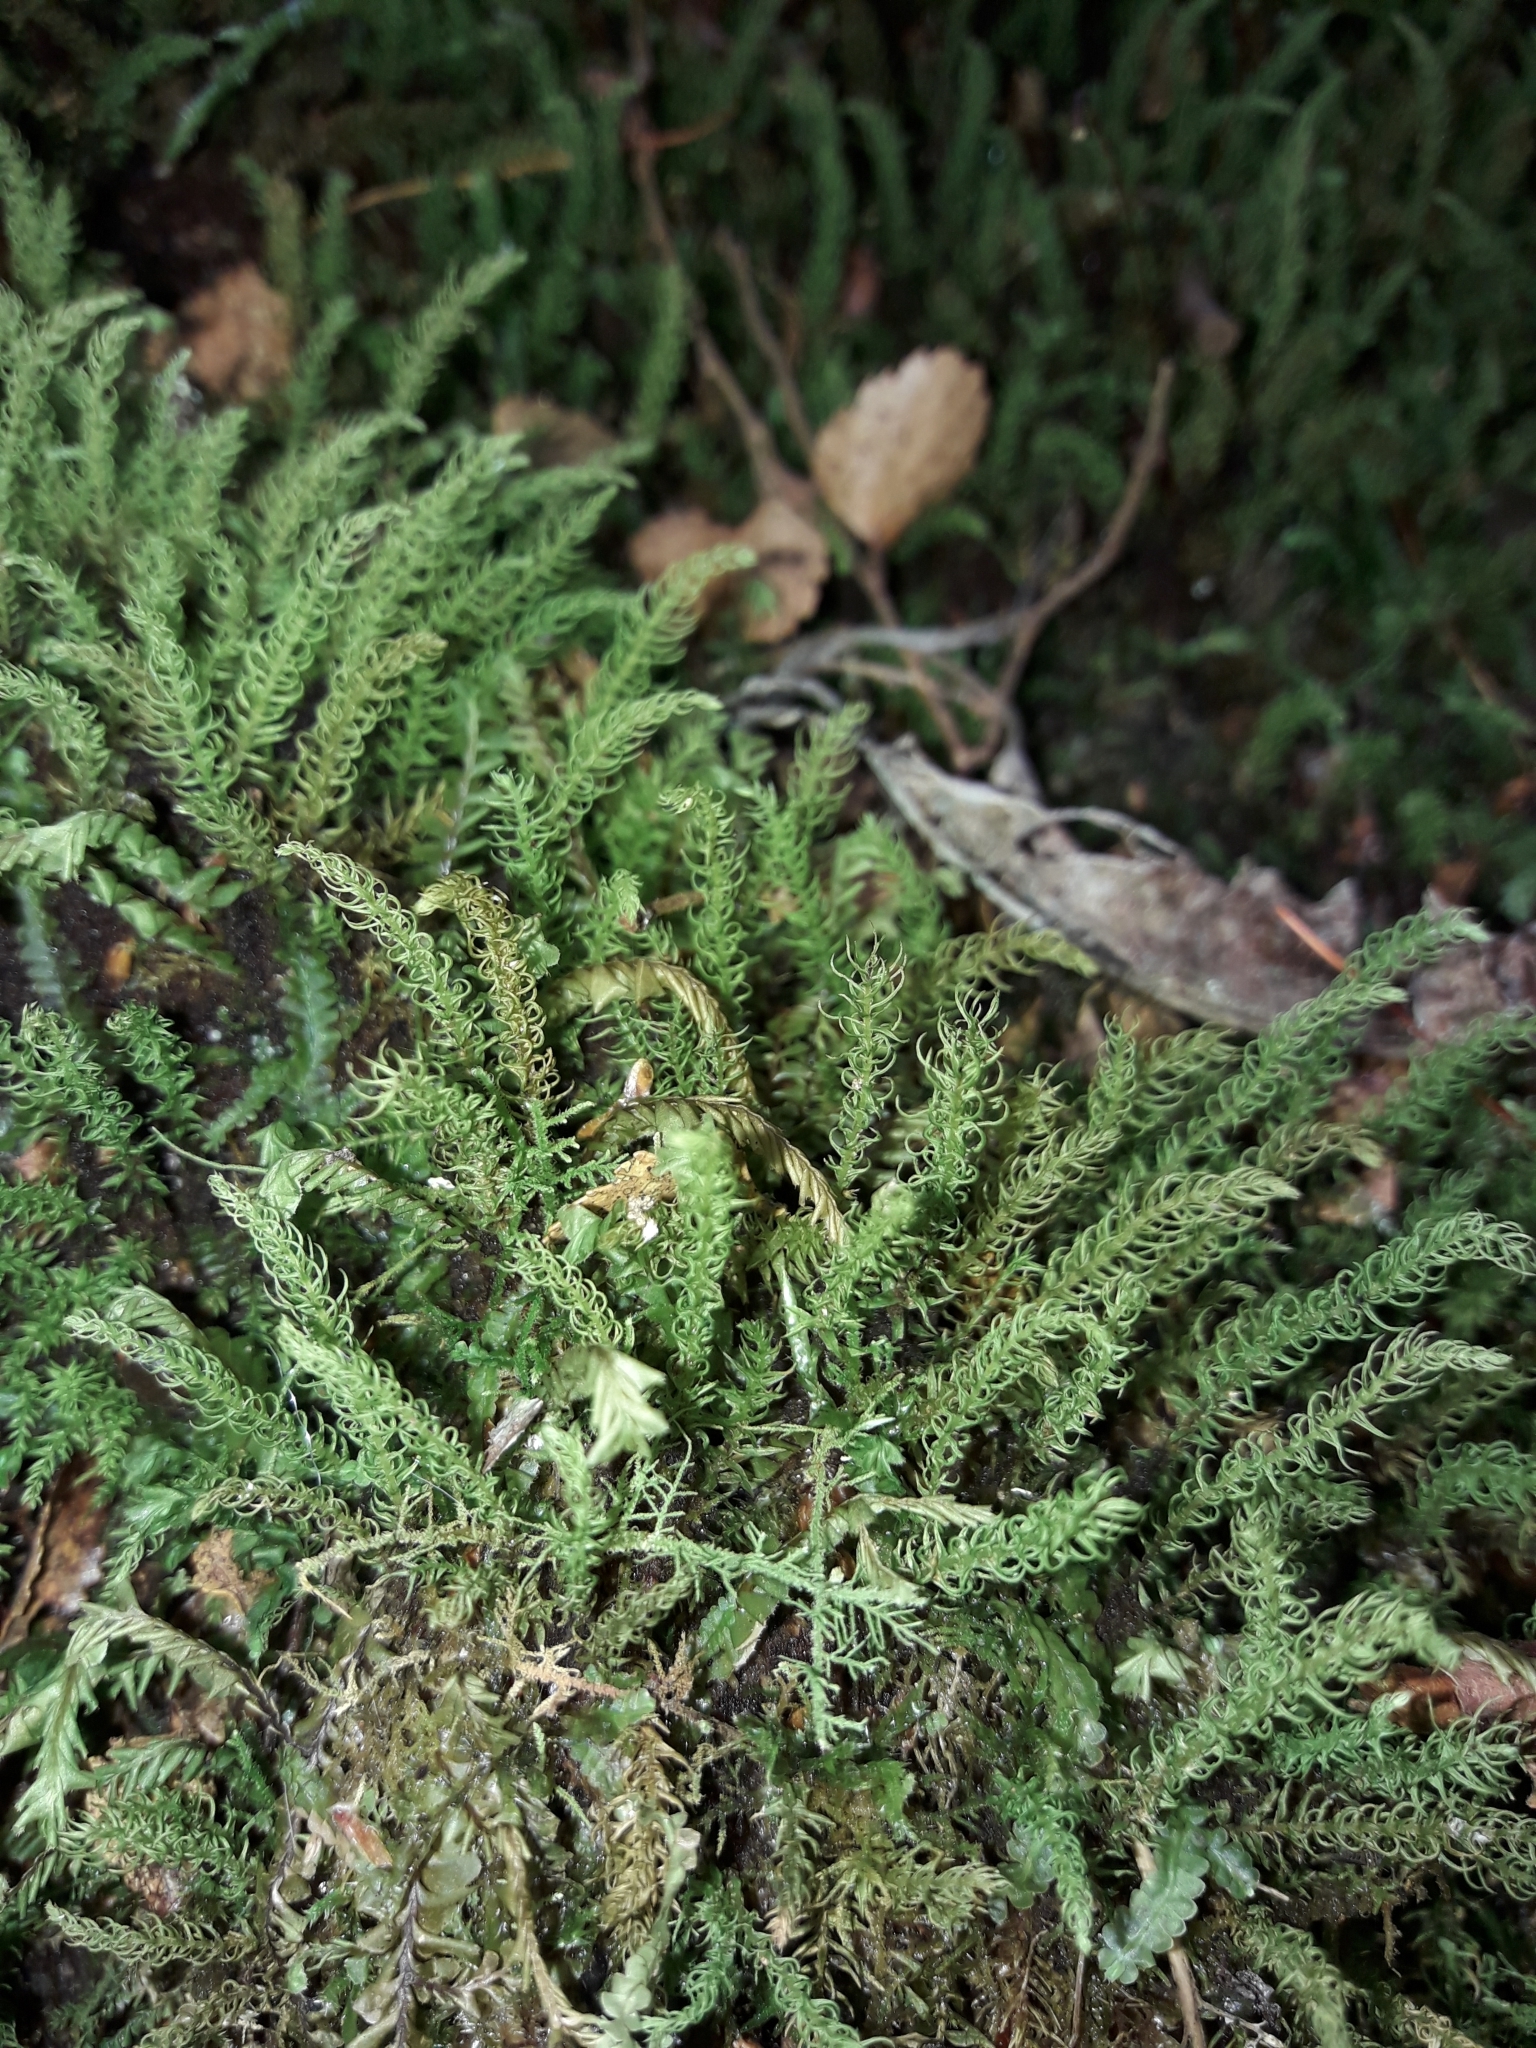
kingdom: Plantae
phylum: Bryophyta
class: Bryopsida
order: Aulacomniales
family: Aulacomniaceae
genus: Hymenodontopsis
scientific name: Hymenodontopsis mnioides
